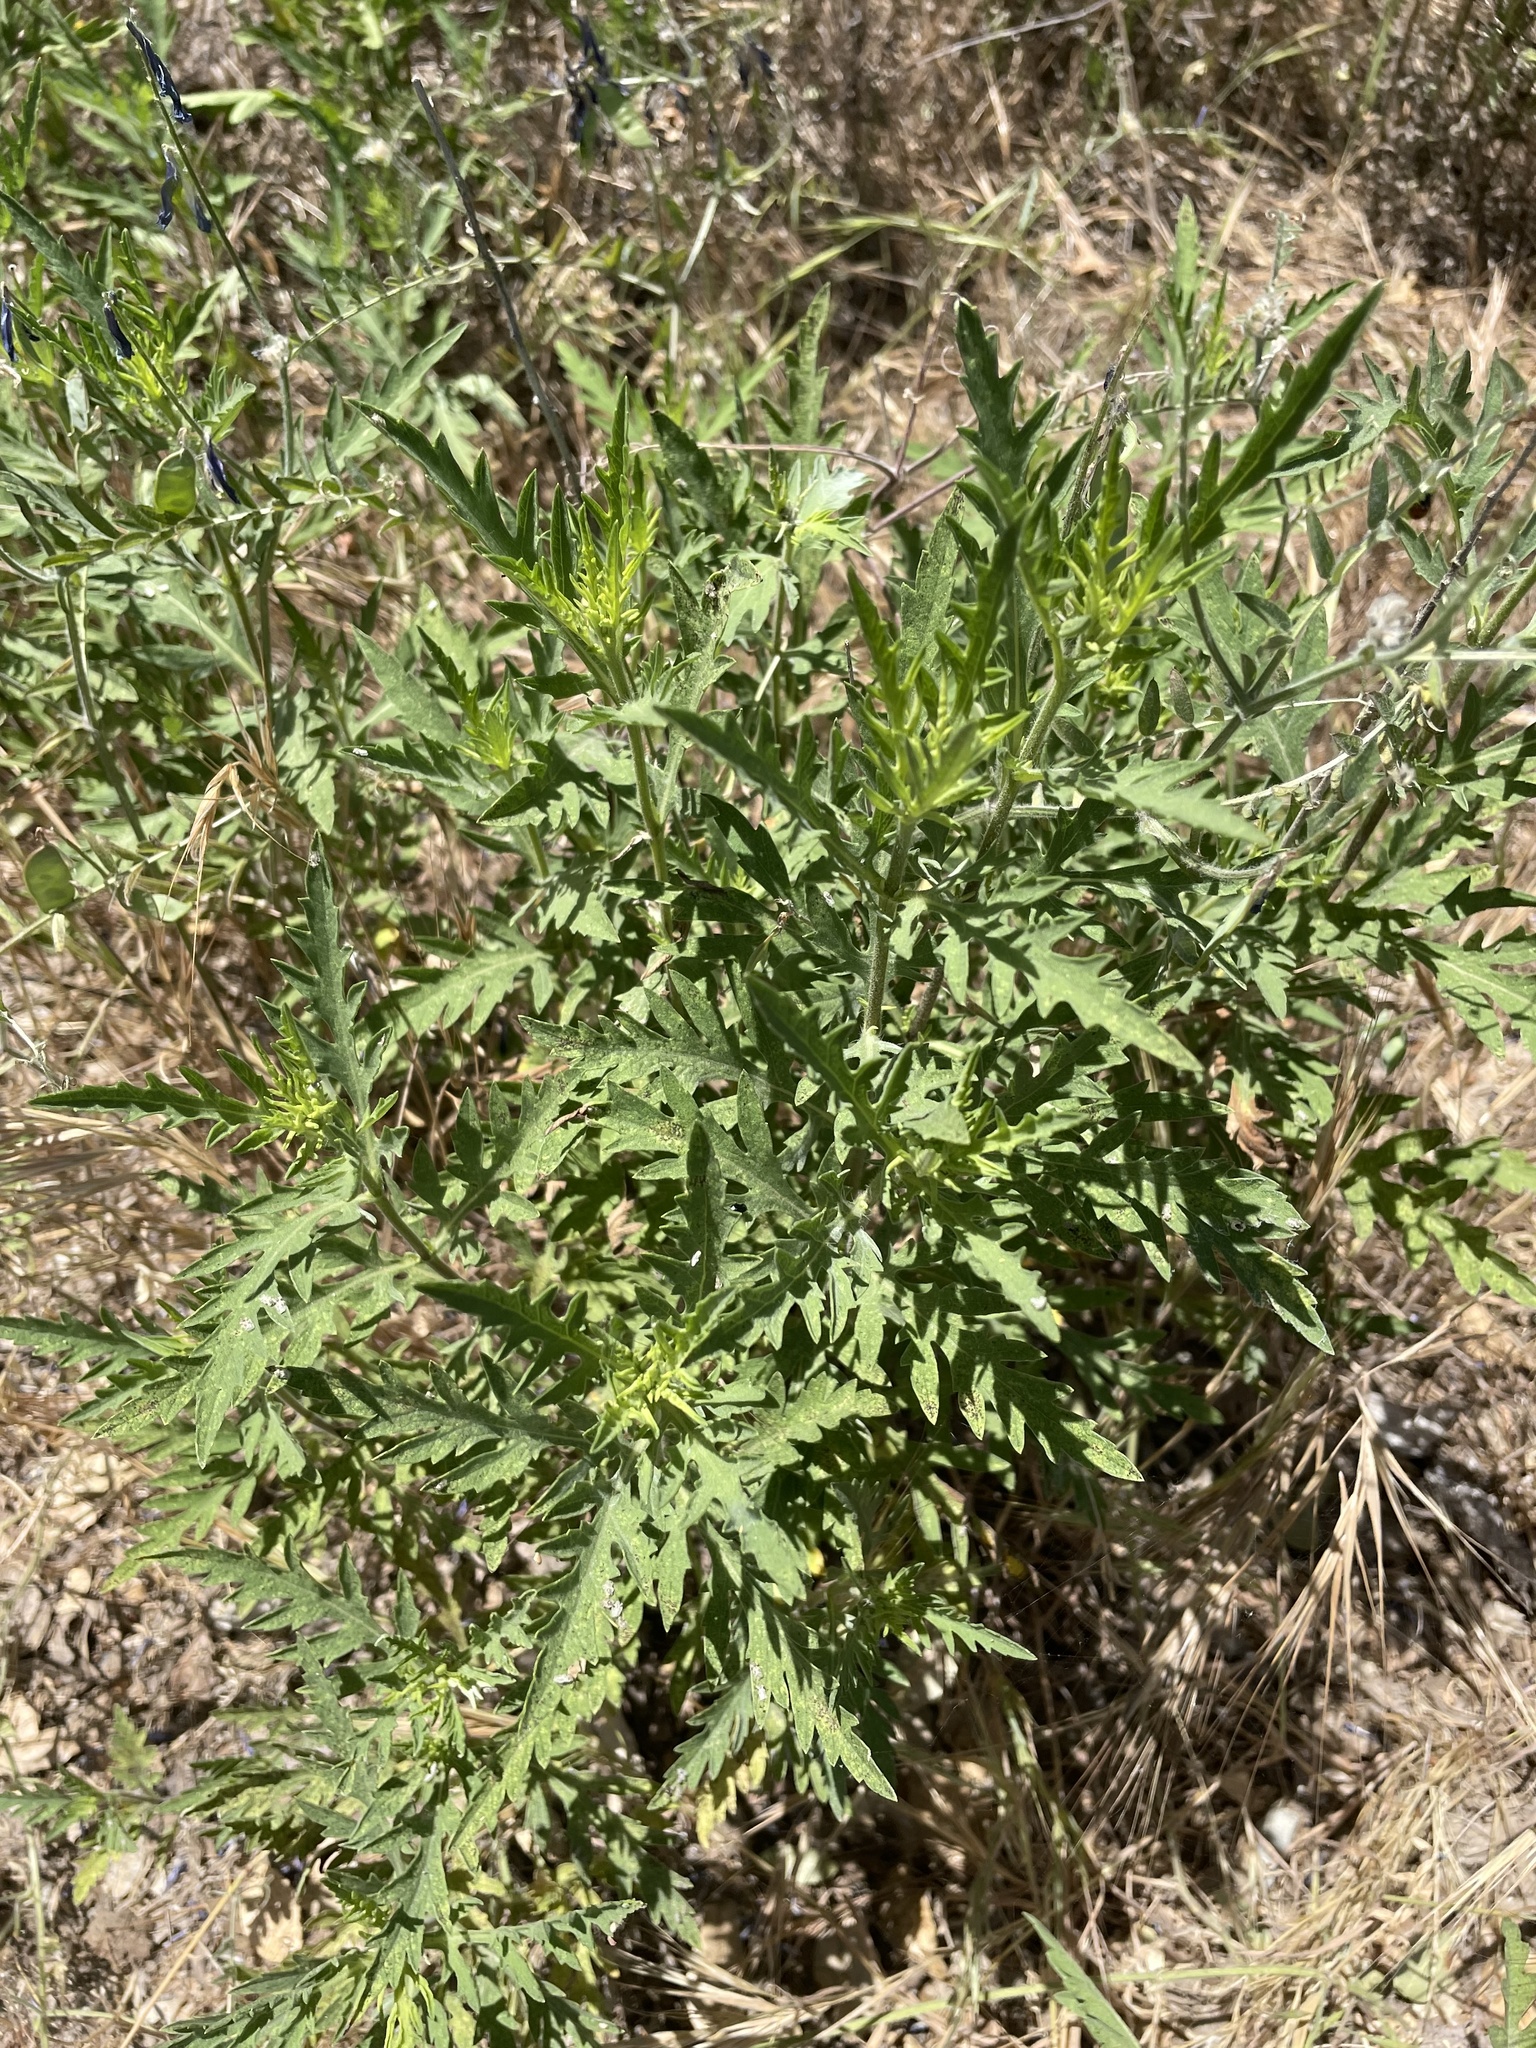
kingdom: Plantae
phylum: Tracheophyta
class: Magnoliopsida
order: Asterales
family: Asteraceae
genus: Ambrosia
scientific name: Ambrosia psilostachya
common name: Perennial ragweed
